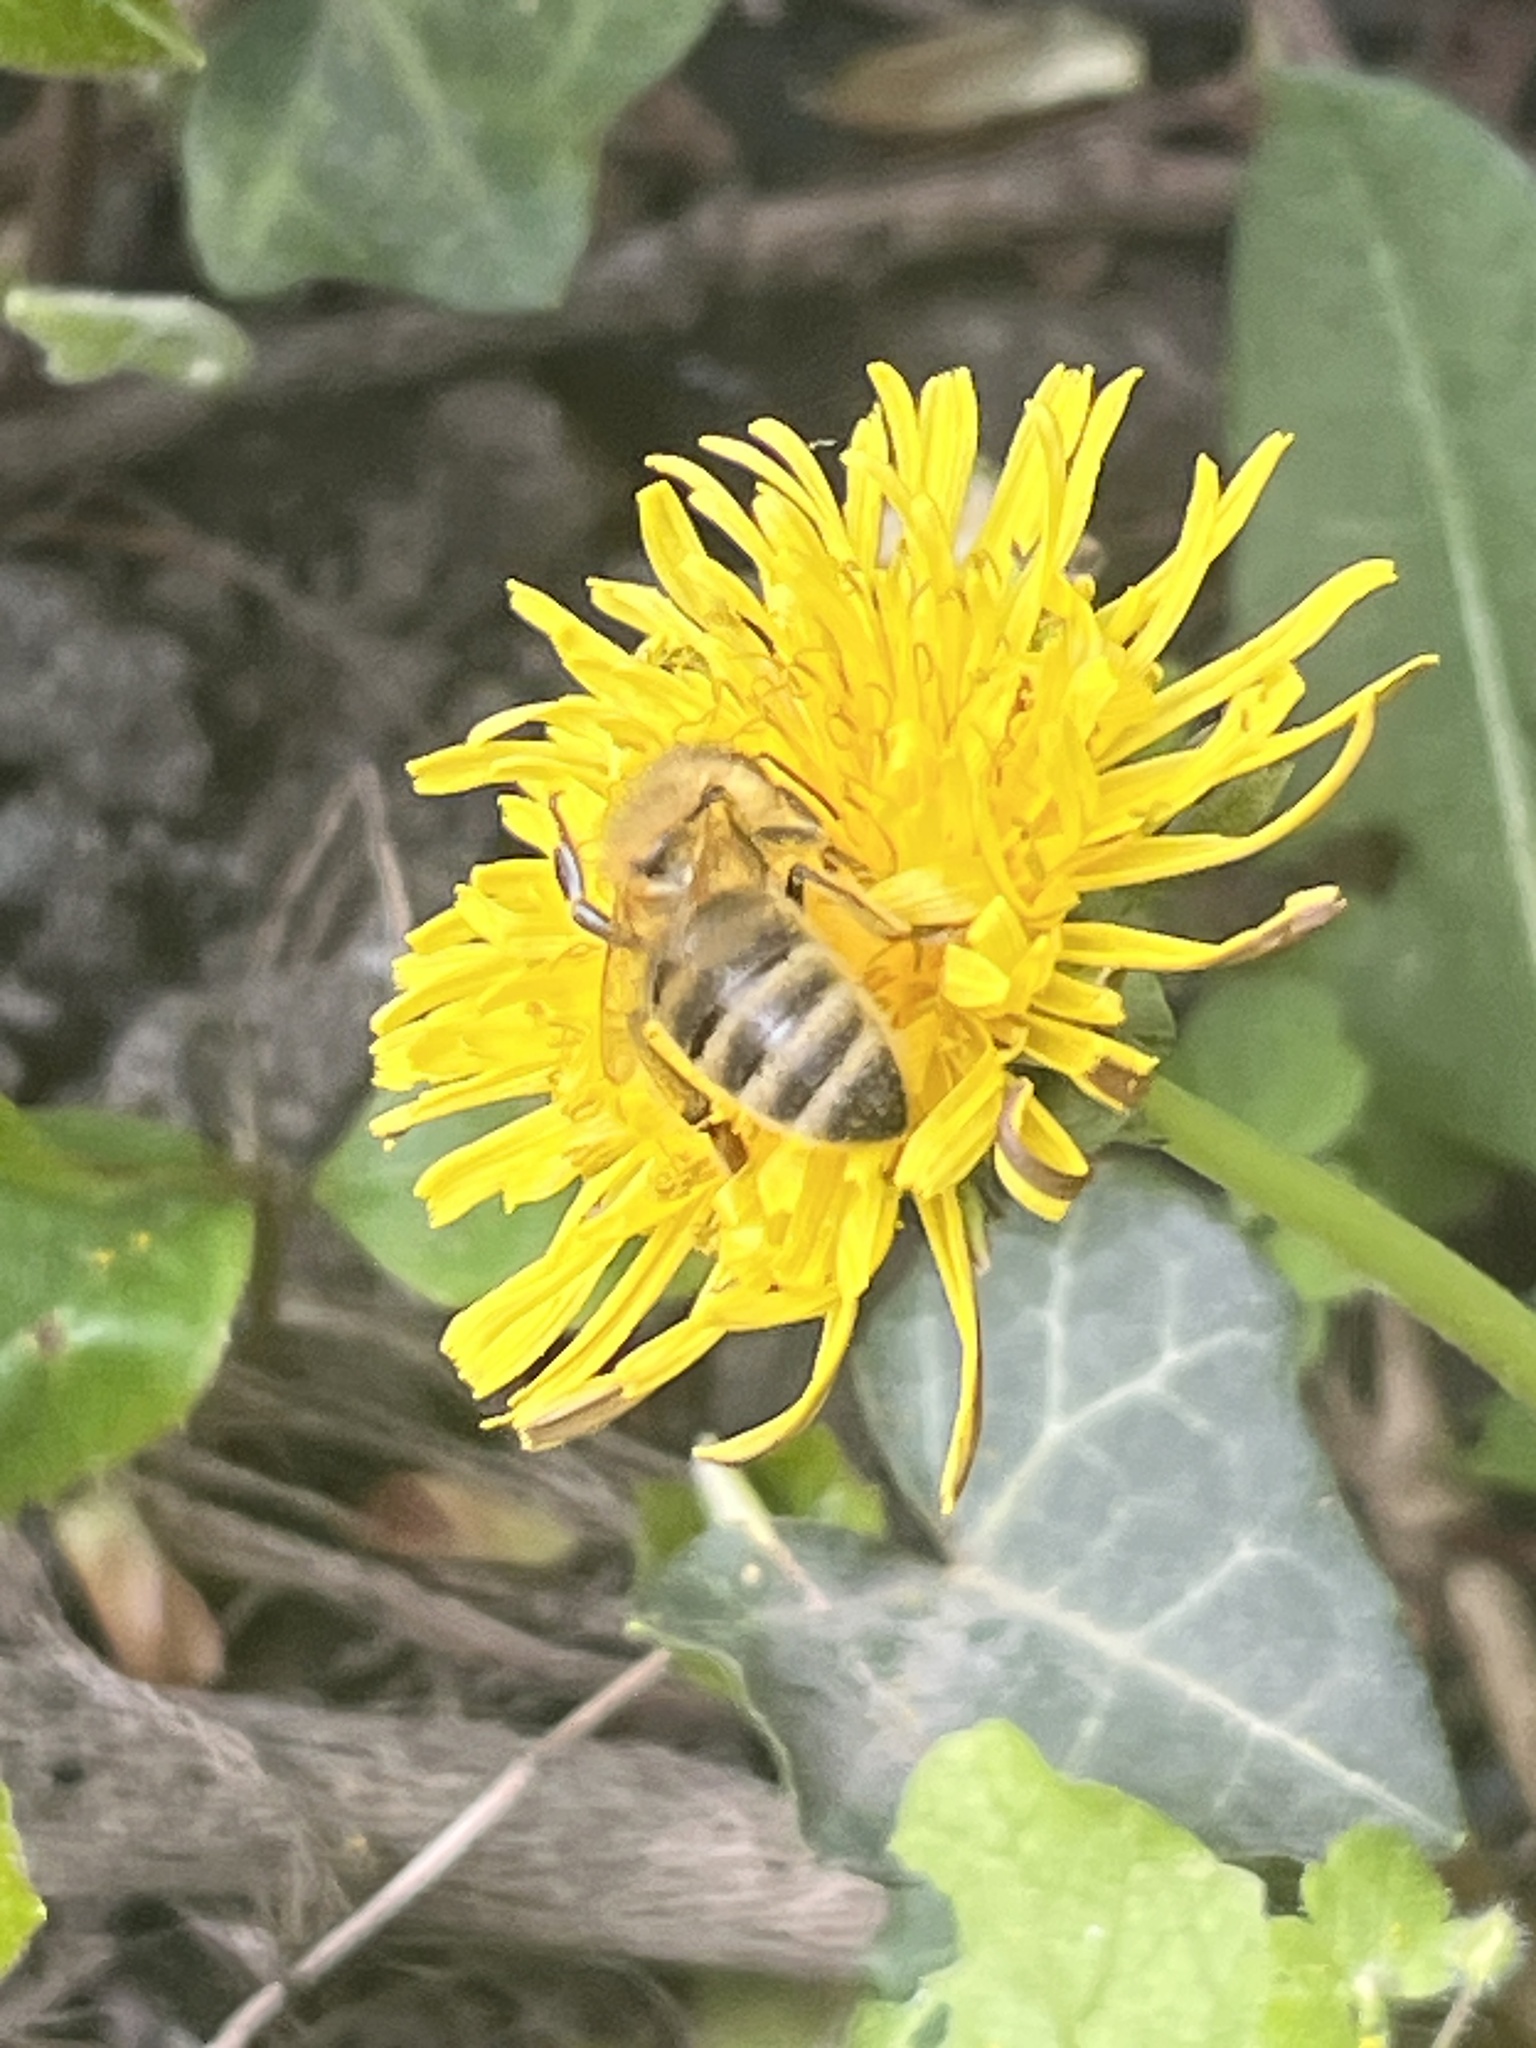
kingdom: Animalia
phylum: Arthropoda
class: Insecta
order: Hymenoptera
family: Apidae
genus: Apis
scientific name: Apis mellifera
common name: Honey bee
